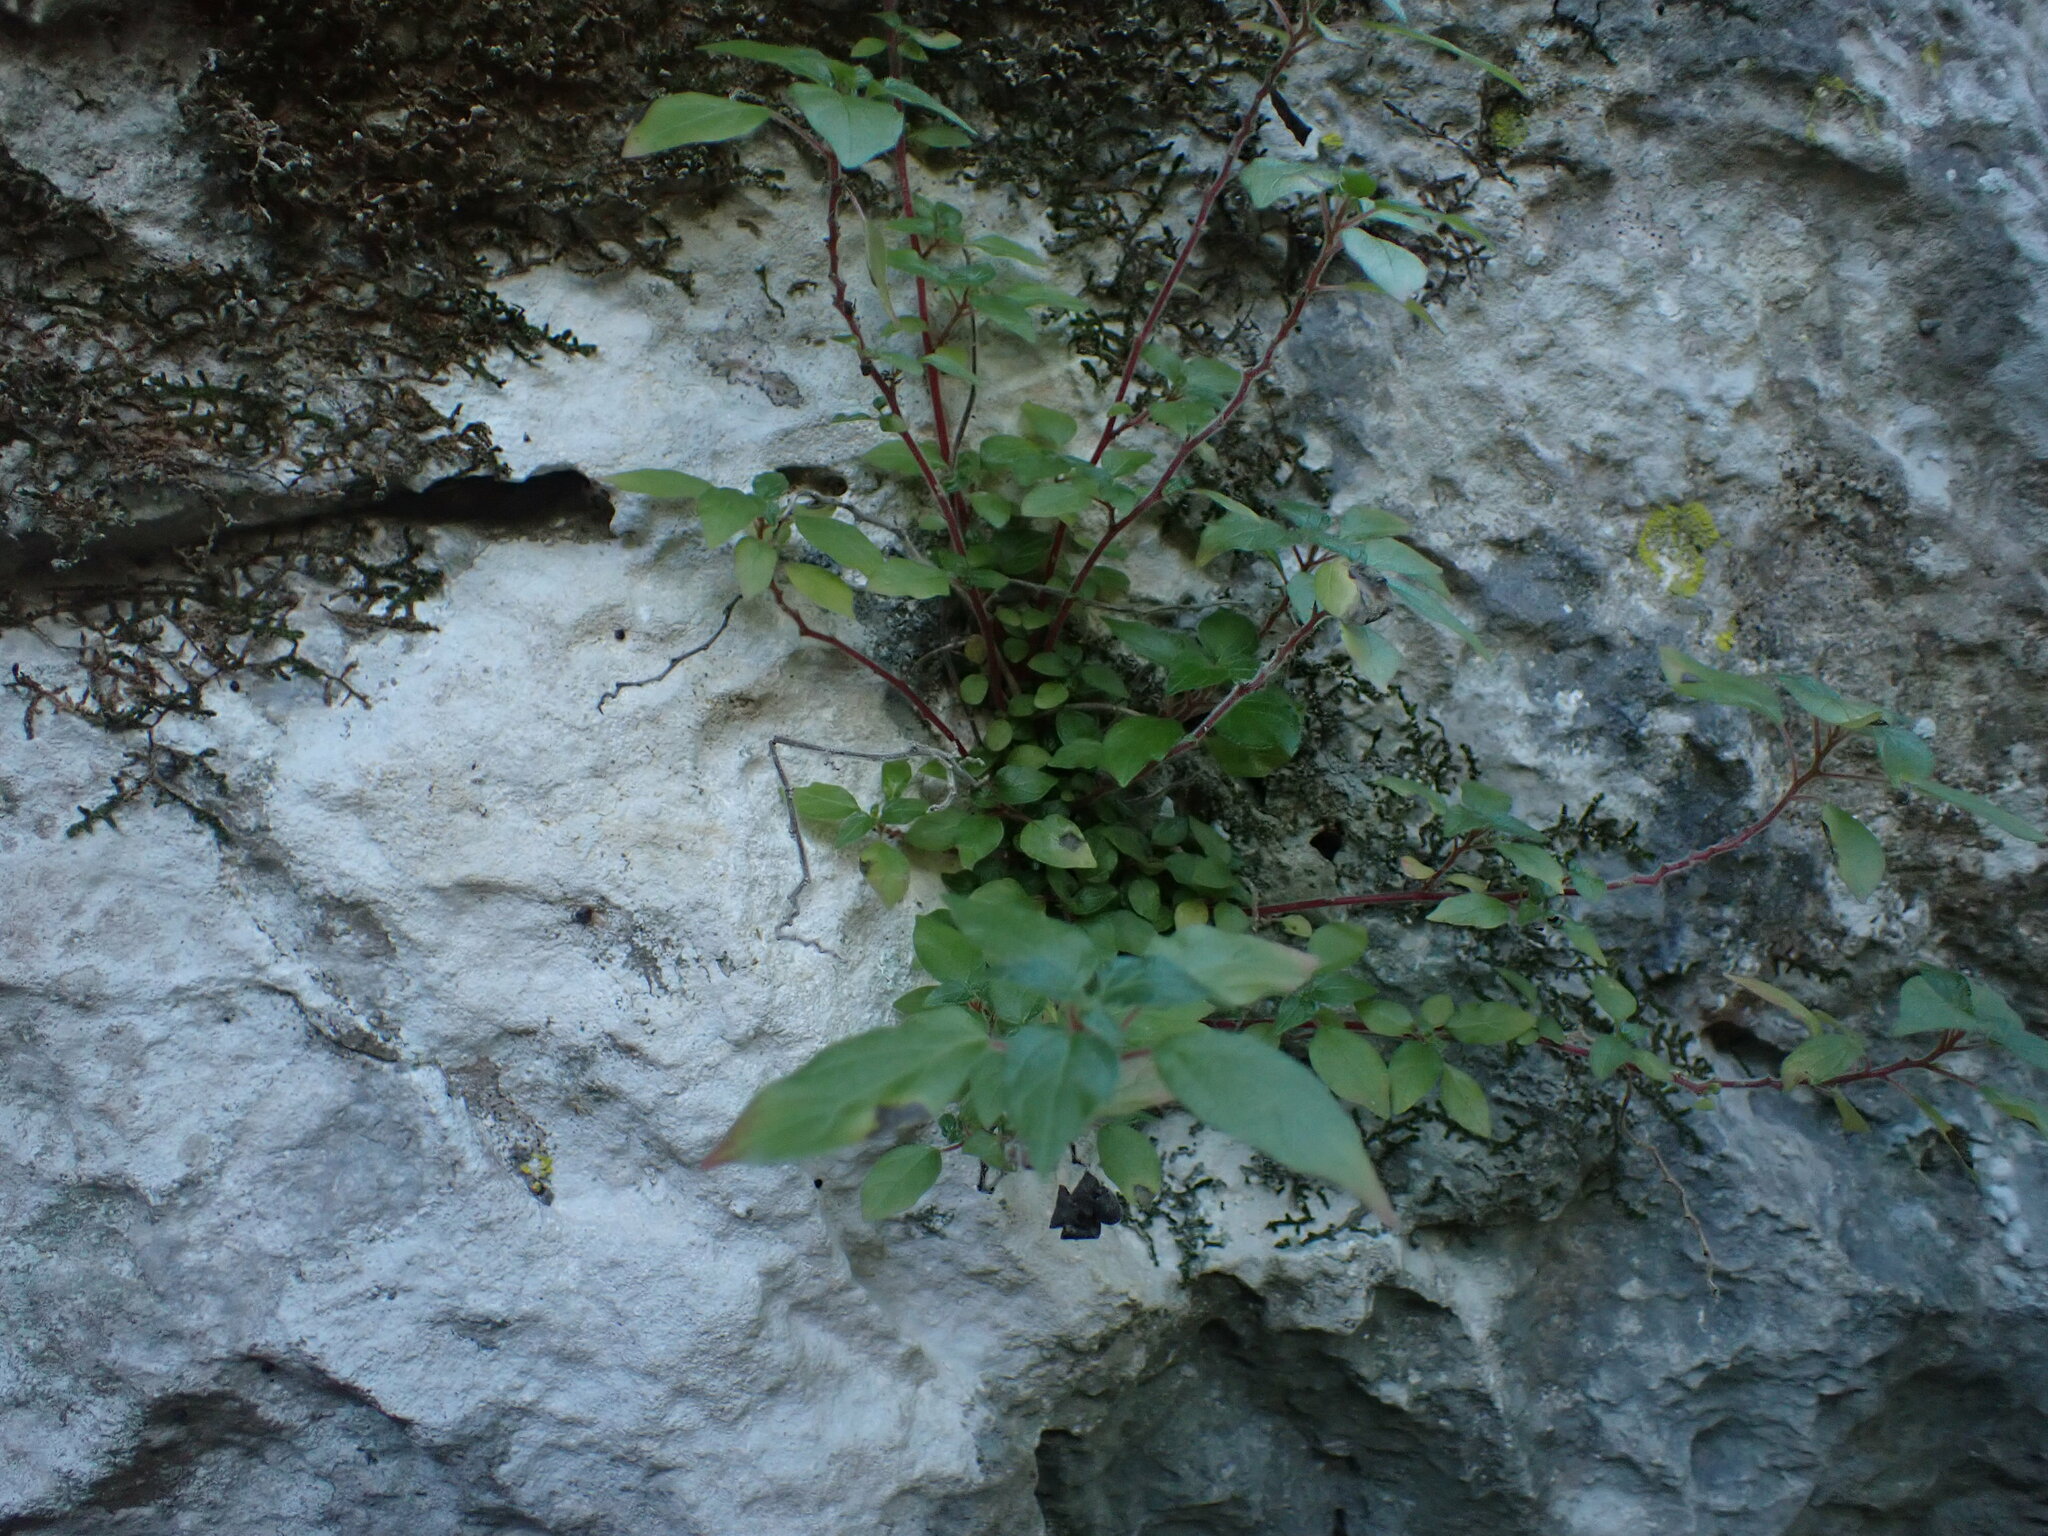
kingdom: Plantae
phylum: Tracheophyta
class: Magnoliopsida
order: Rosales
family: Urticaceae
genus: Parietaria
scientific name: Parietaria judaica
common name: Pellitory-of-the-wall
